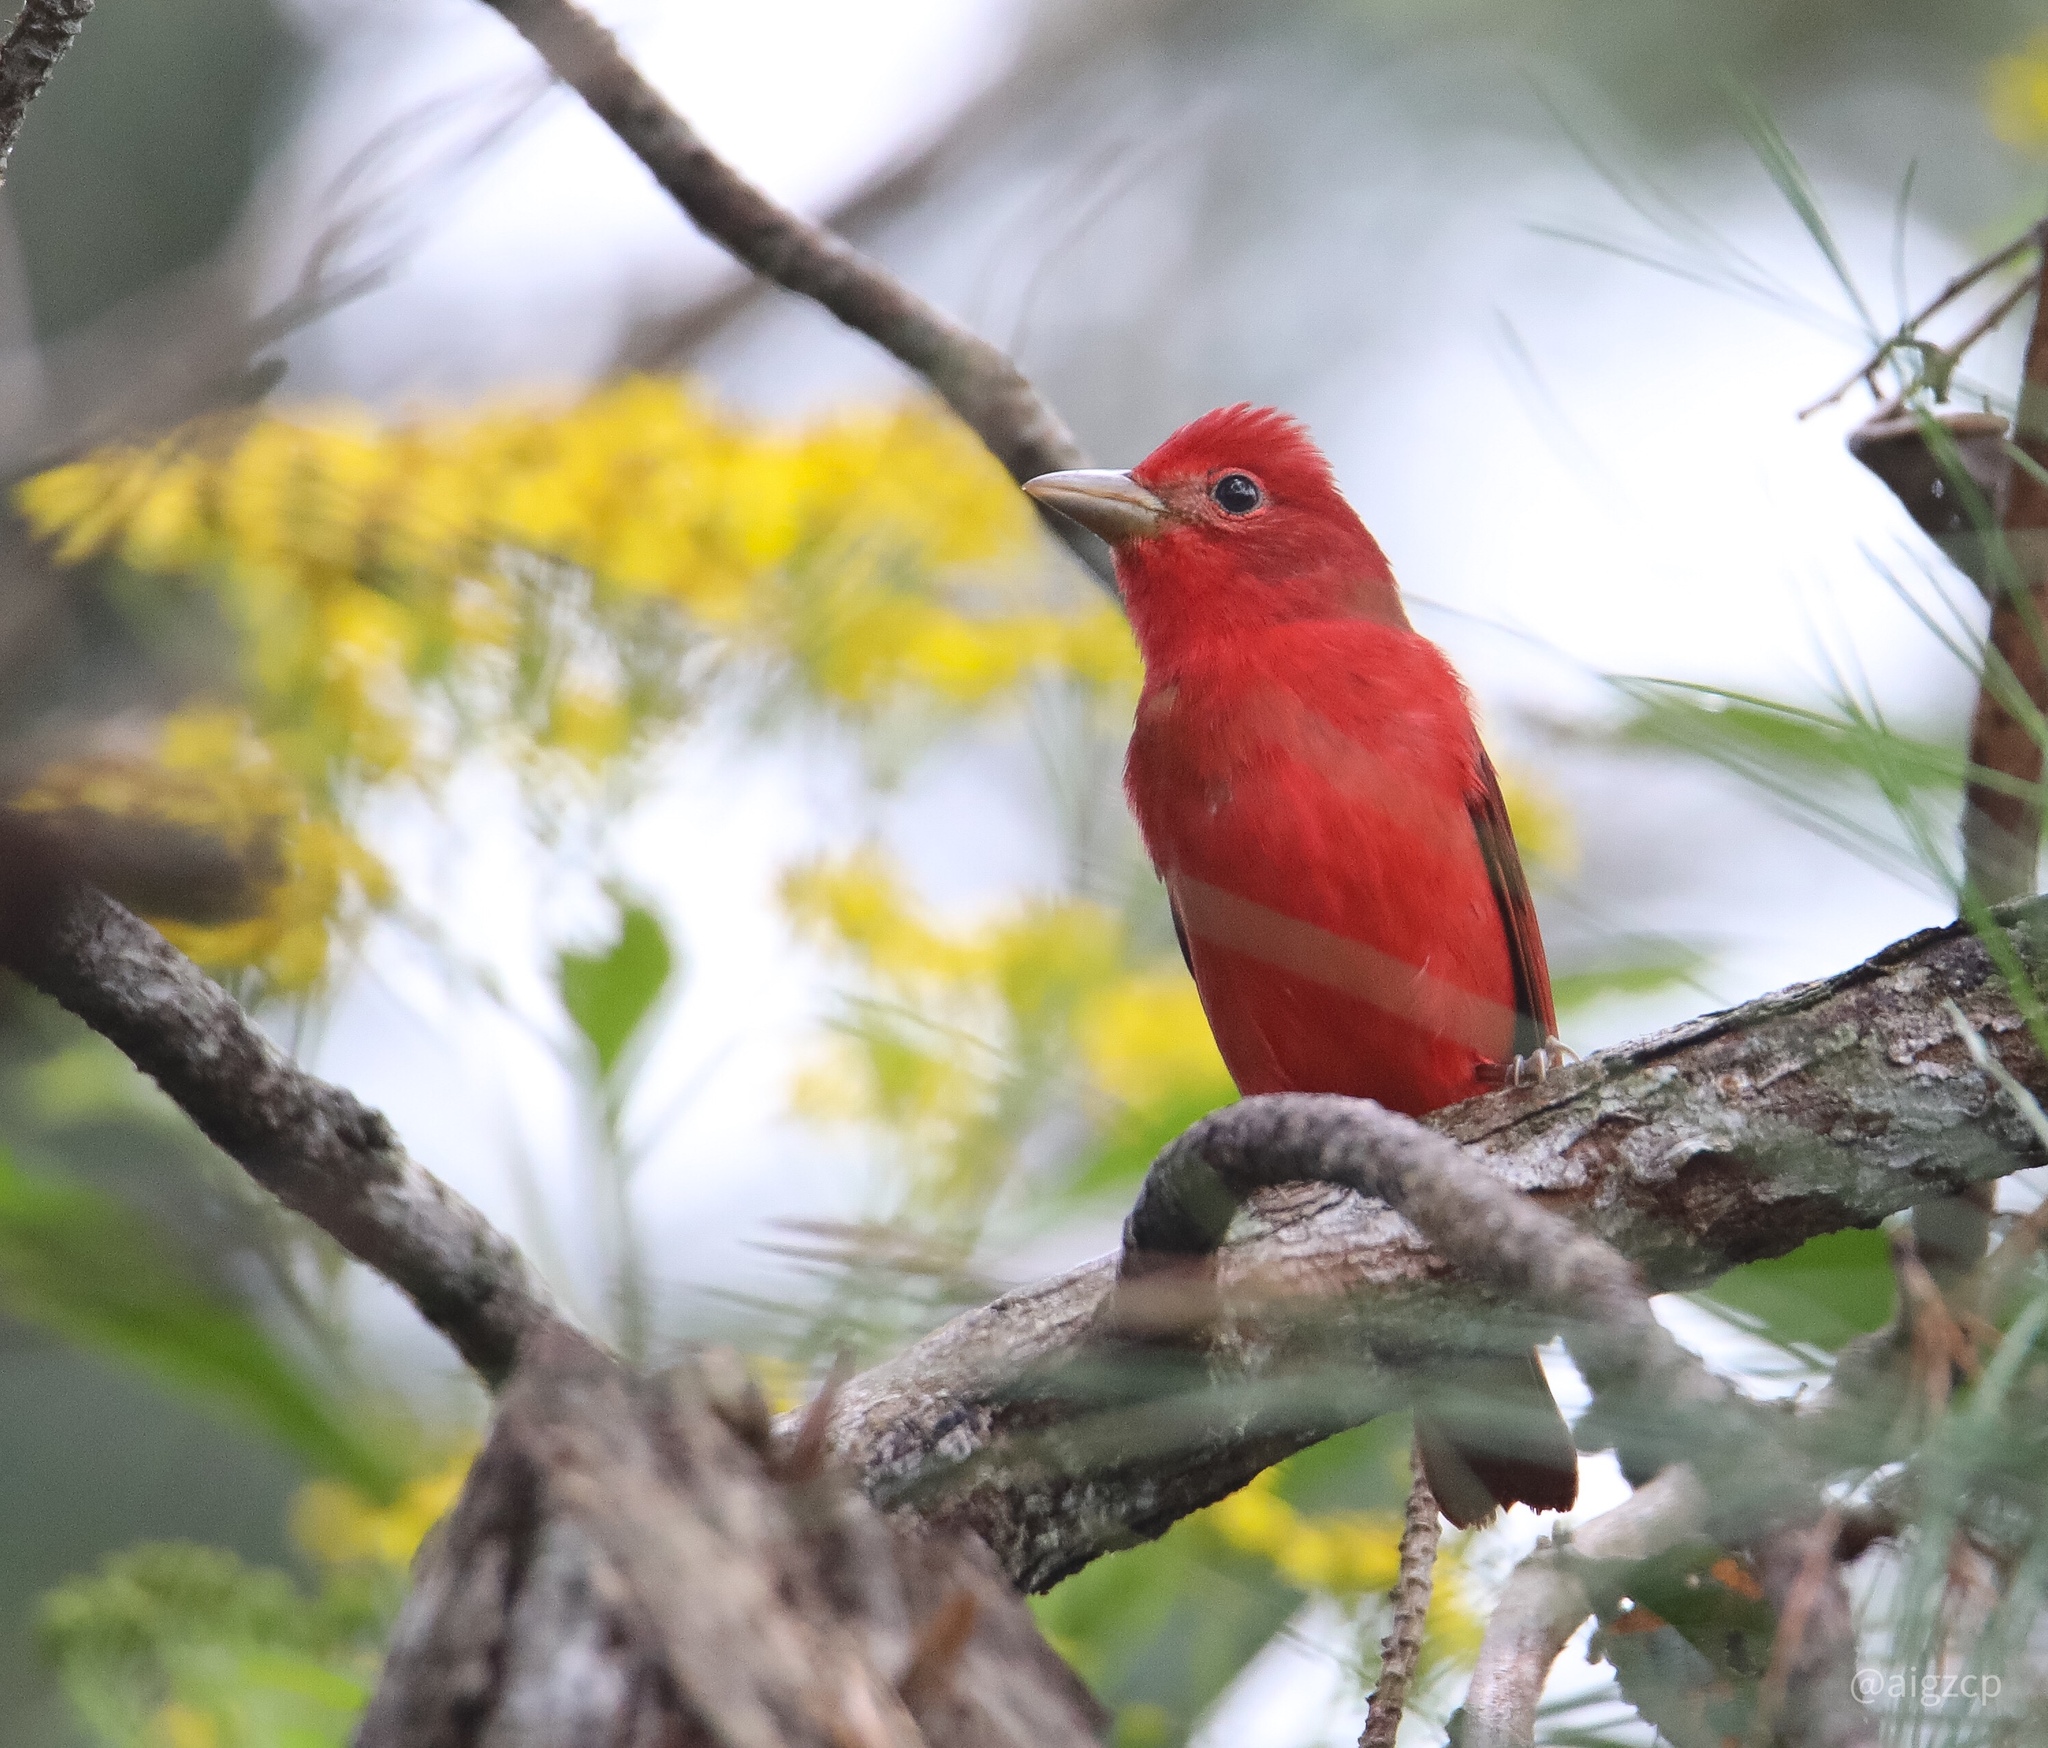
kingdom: Animalia
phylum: Chordata
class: Aves
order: Passeriformes
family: Cardinalidae
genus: Piranga
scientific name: Piranga rubra
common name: Summer tanager
